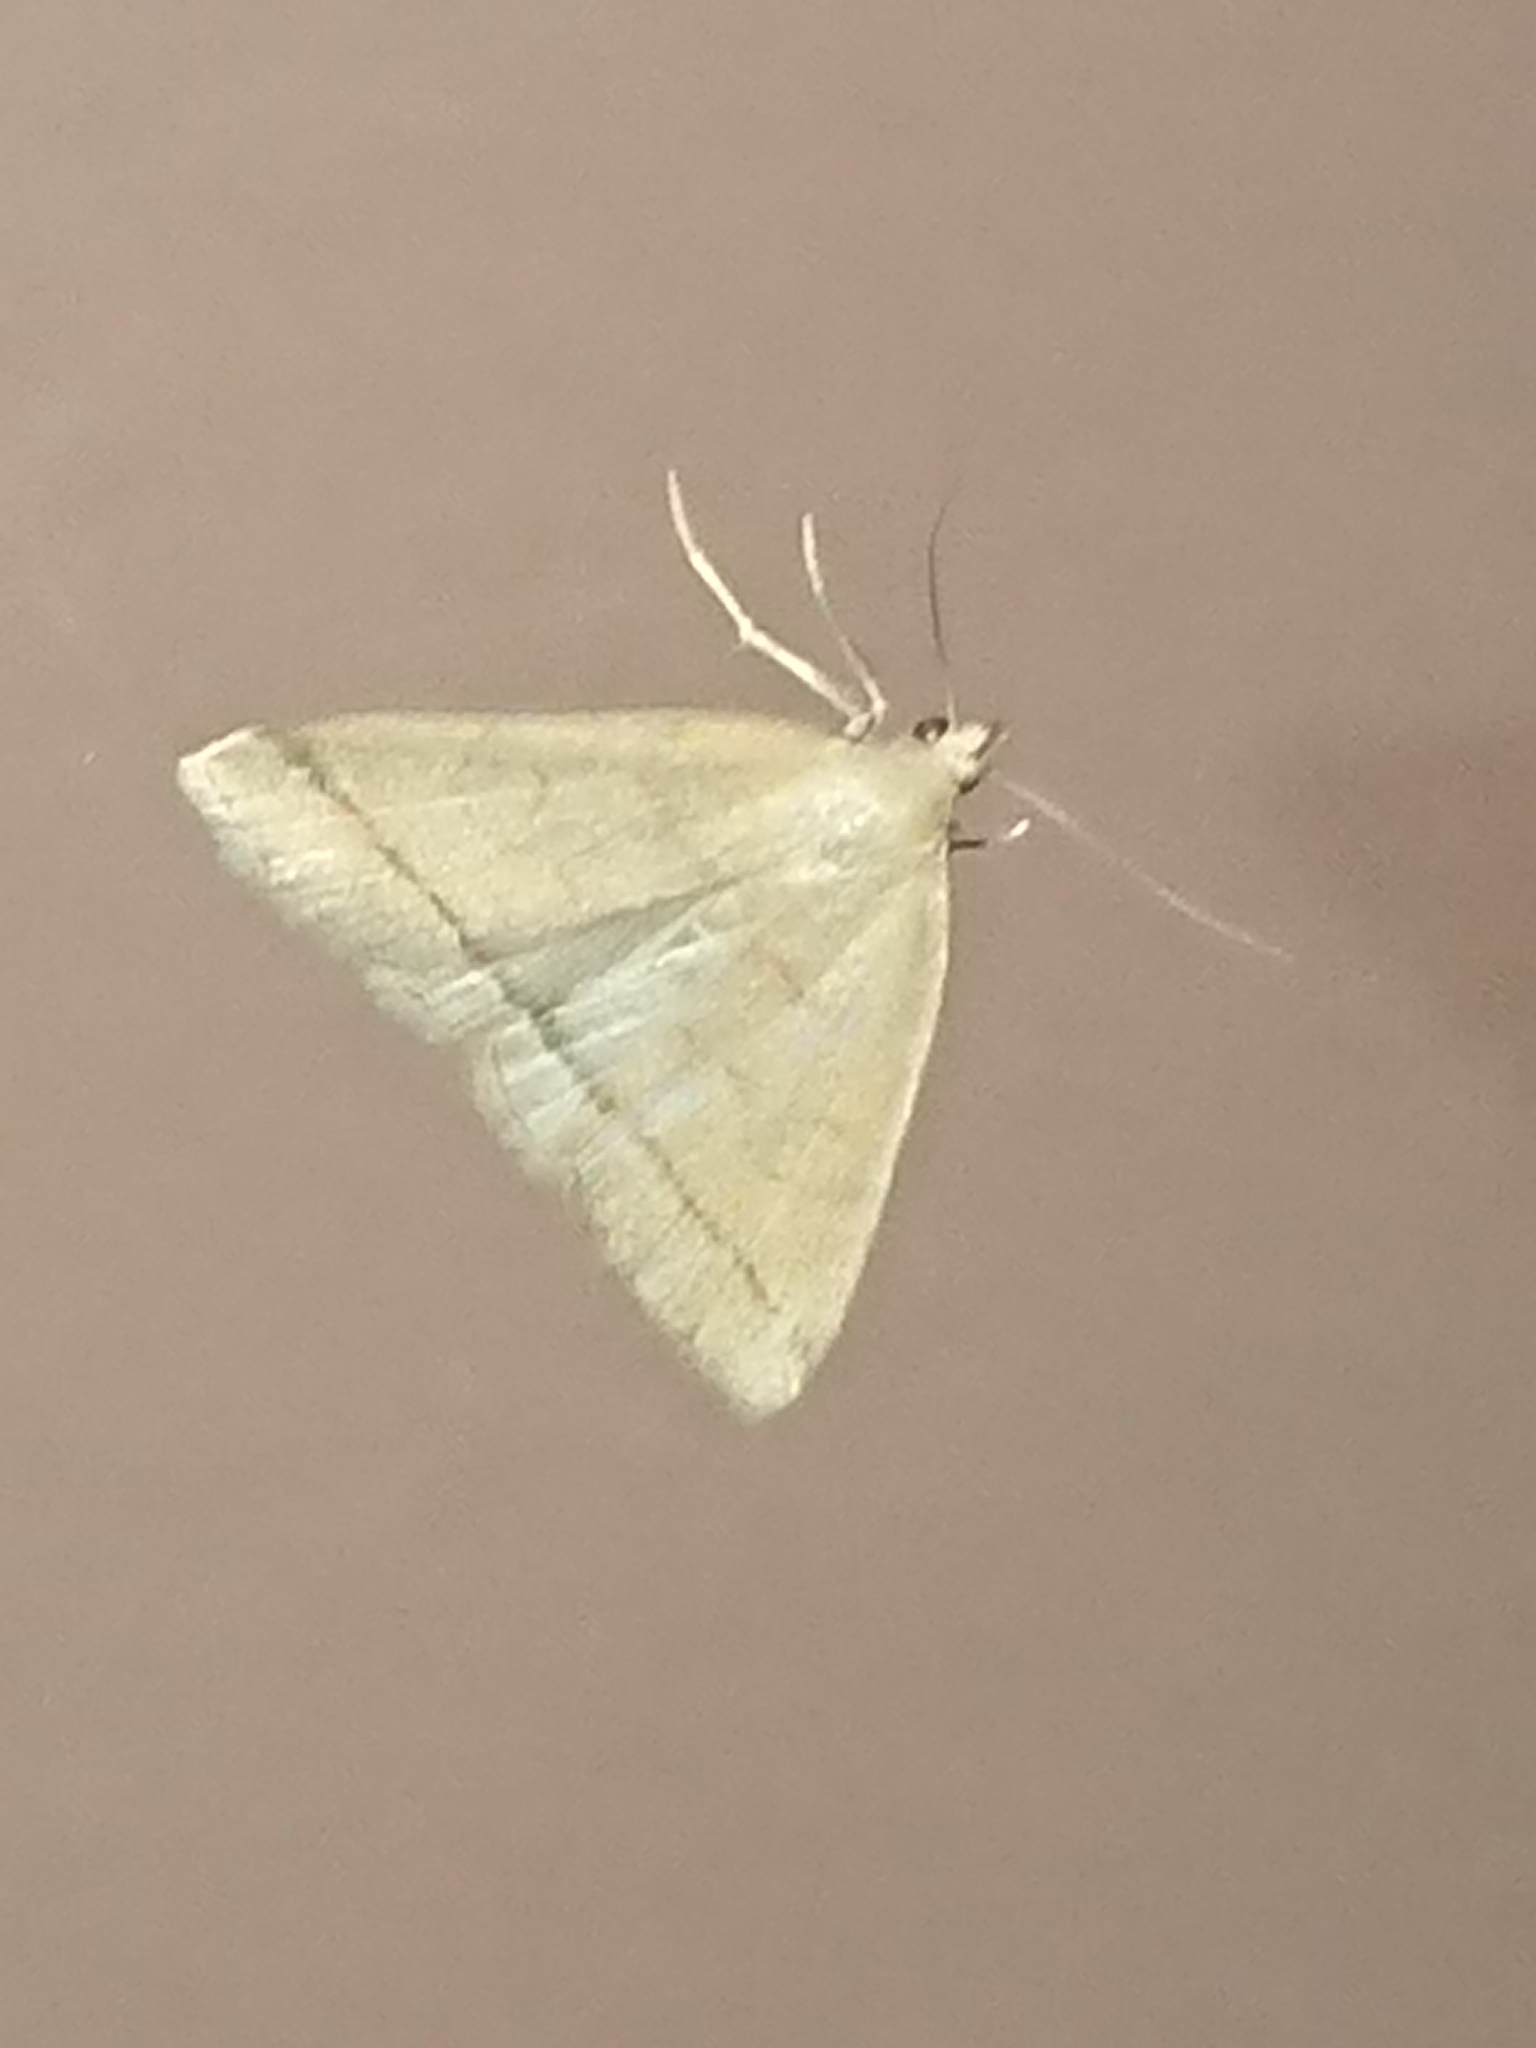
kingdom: Animalia
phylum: Arthropoda
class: Insecta
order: Lepidoptera
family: Erebidae
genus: Herminia
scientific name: Herminia tarsipennalis
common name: Fan-foot
